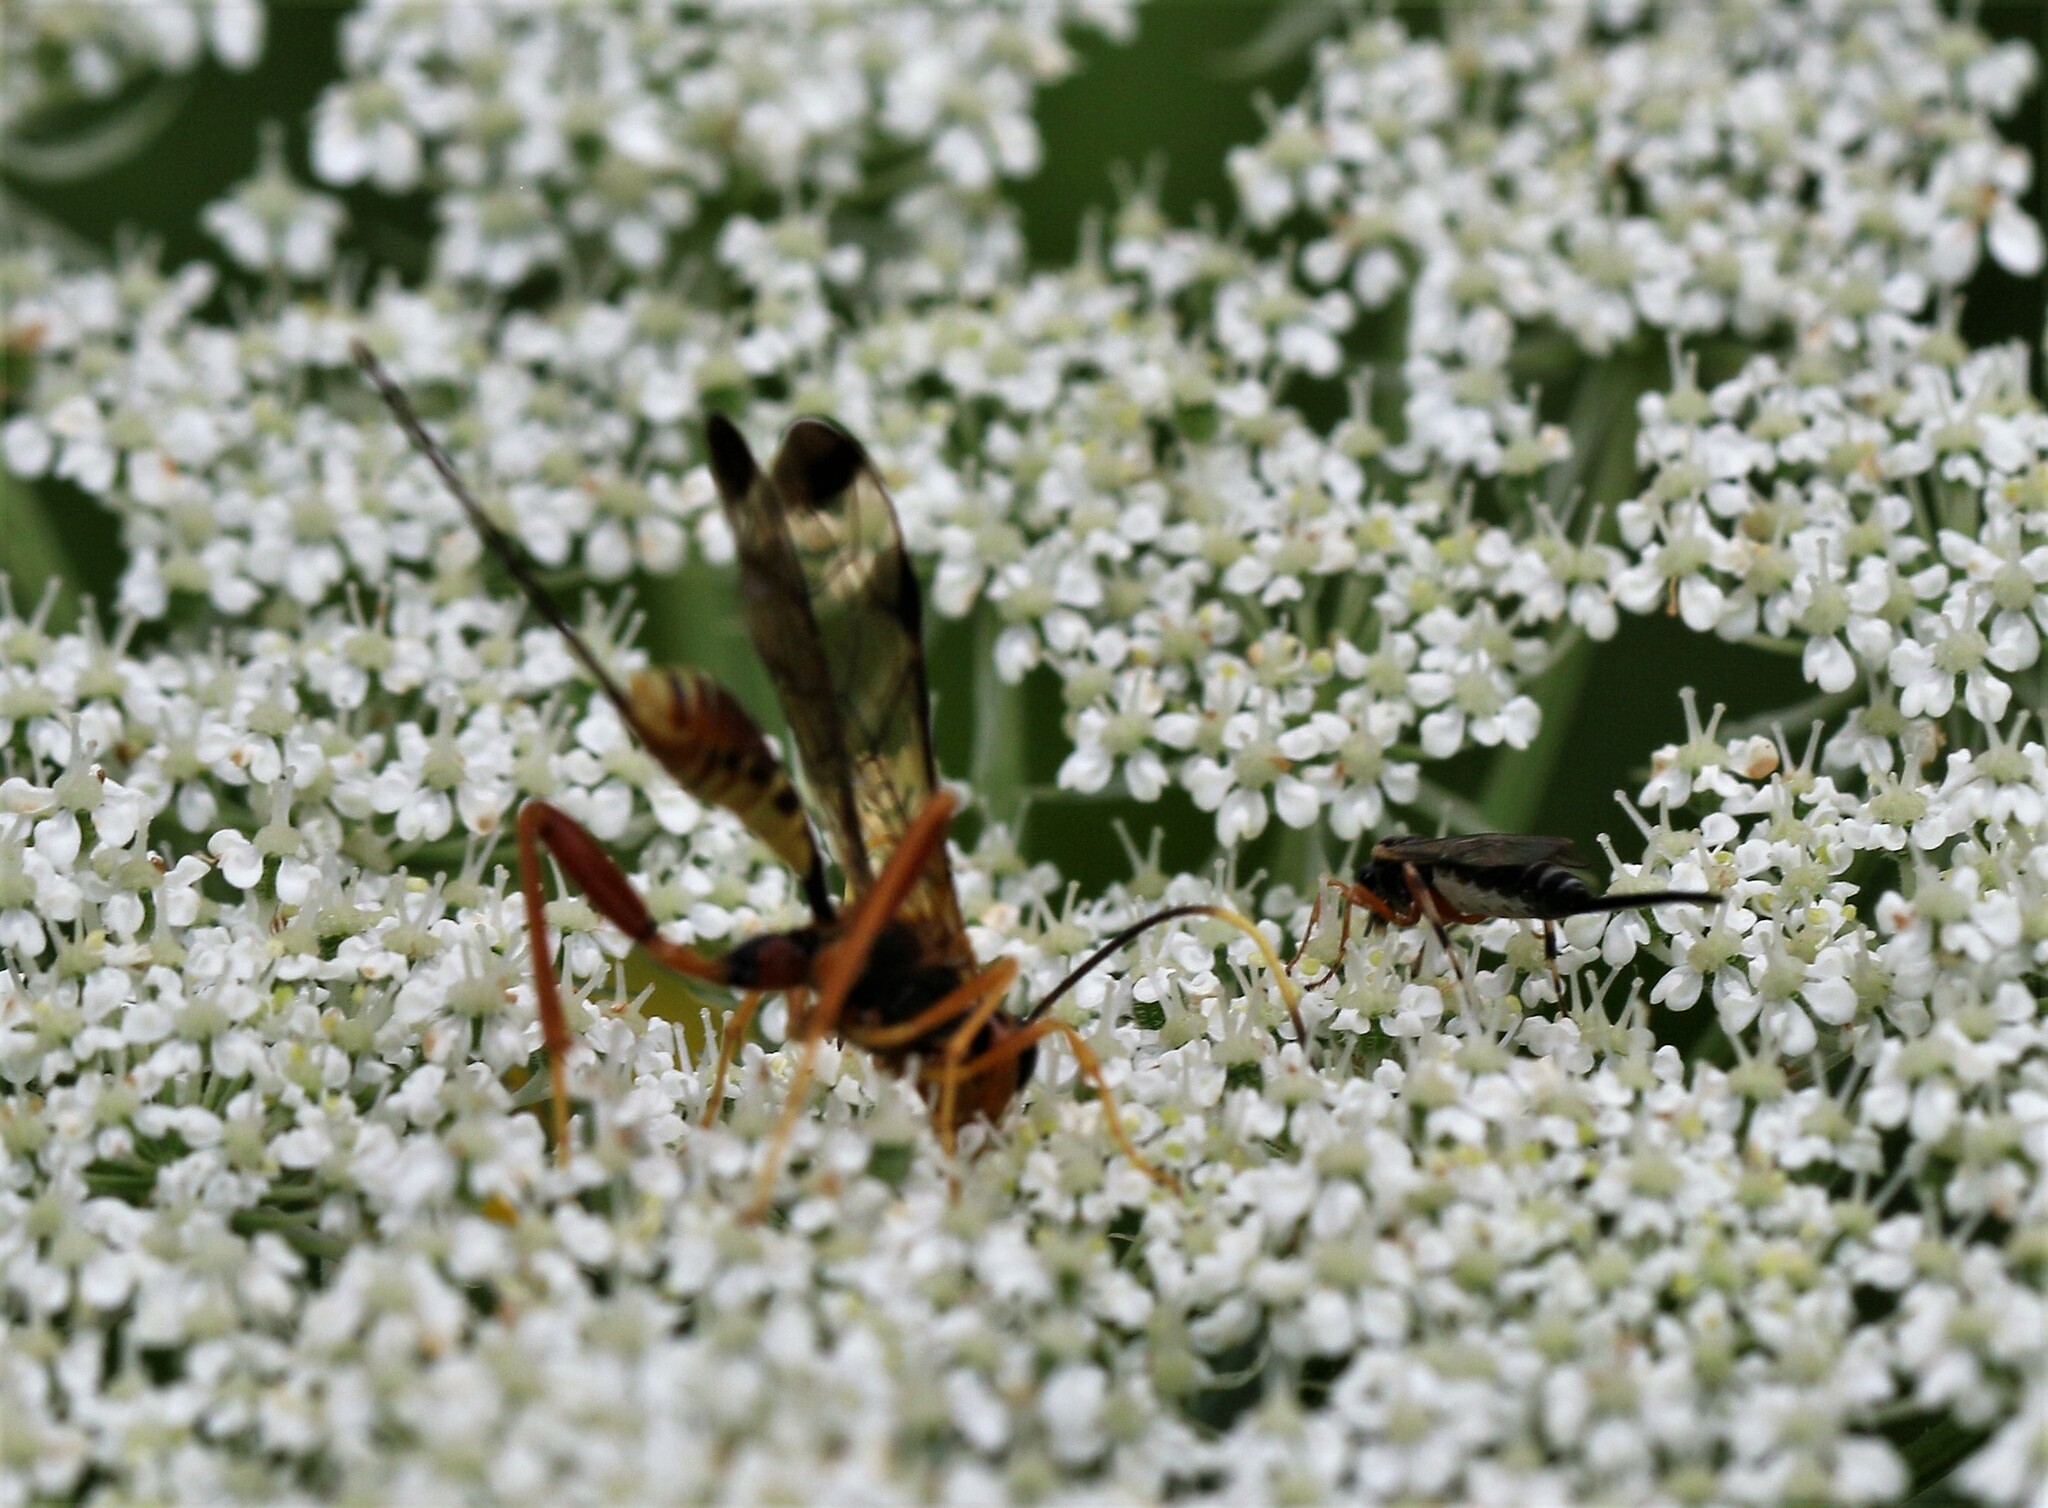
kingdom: Animalia
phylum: Arthropoda
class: Insecta
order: Hymenoptera
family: Ichneumonidae
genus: Spilopteron
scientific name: Spilopteron vicinum
